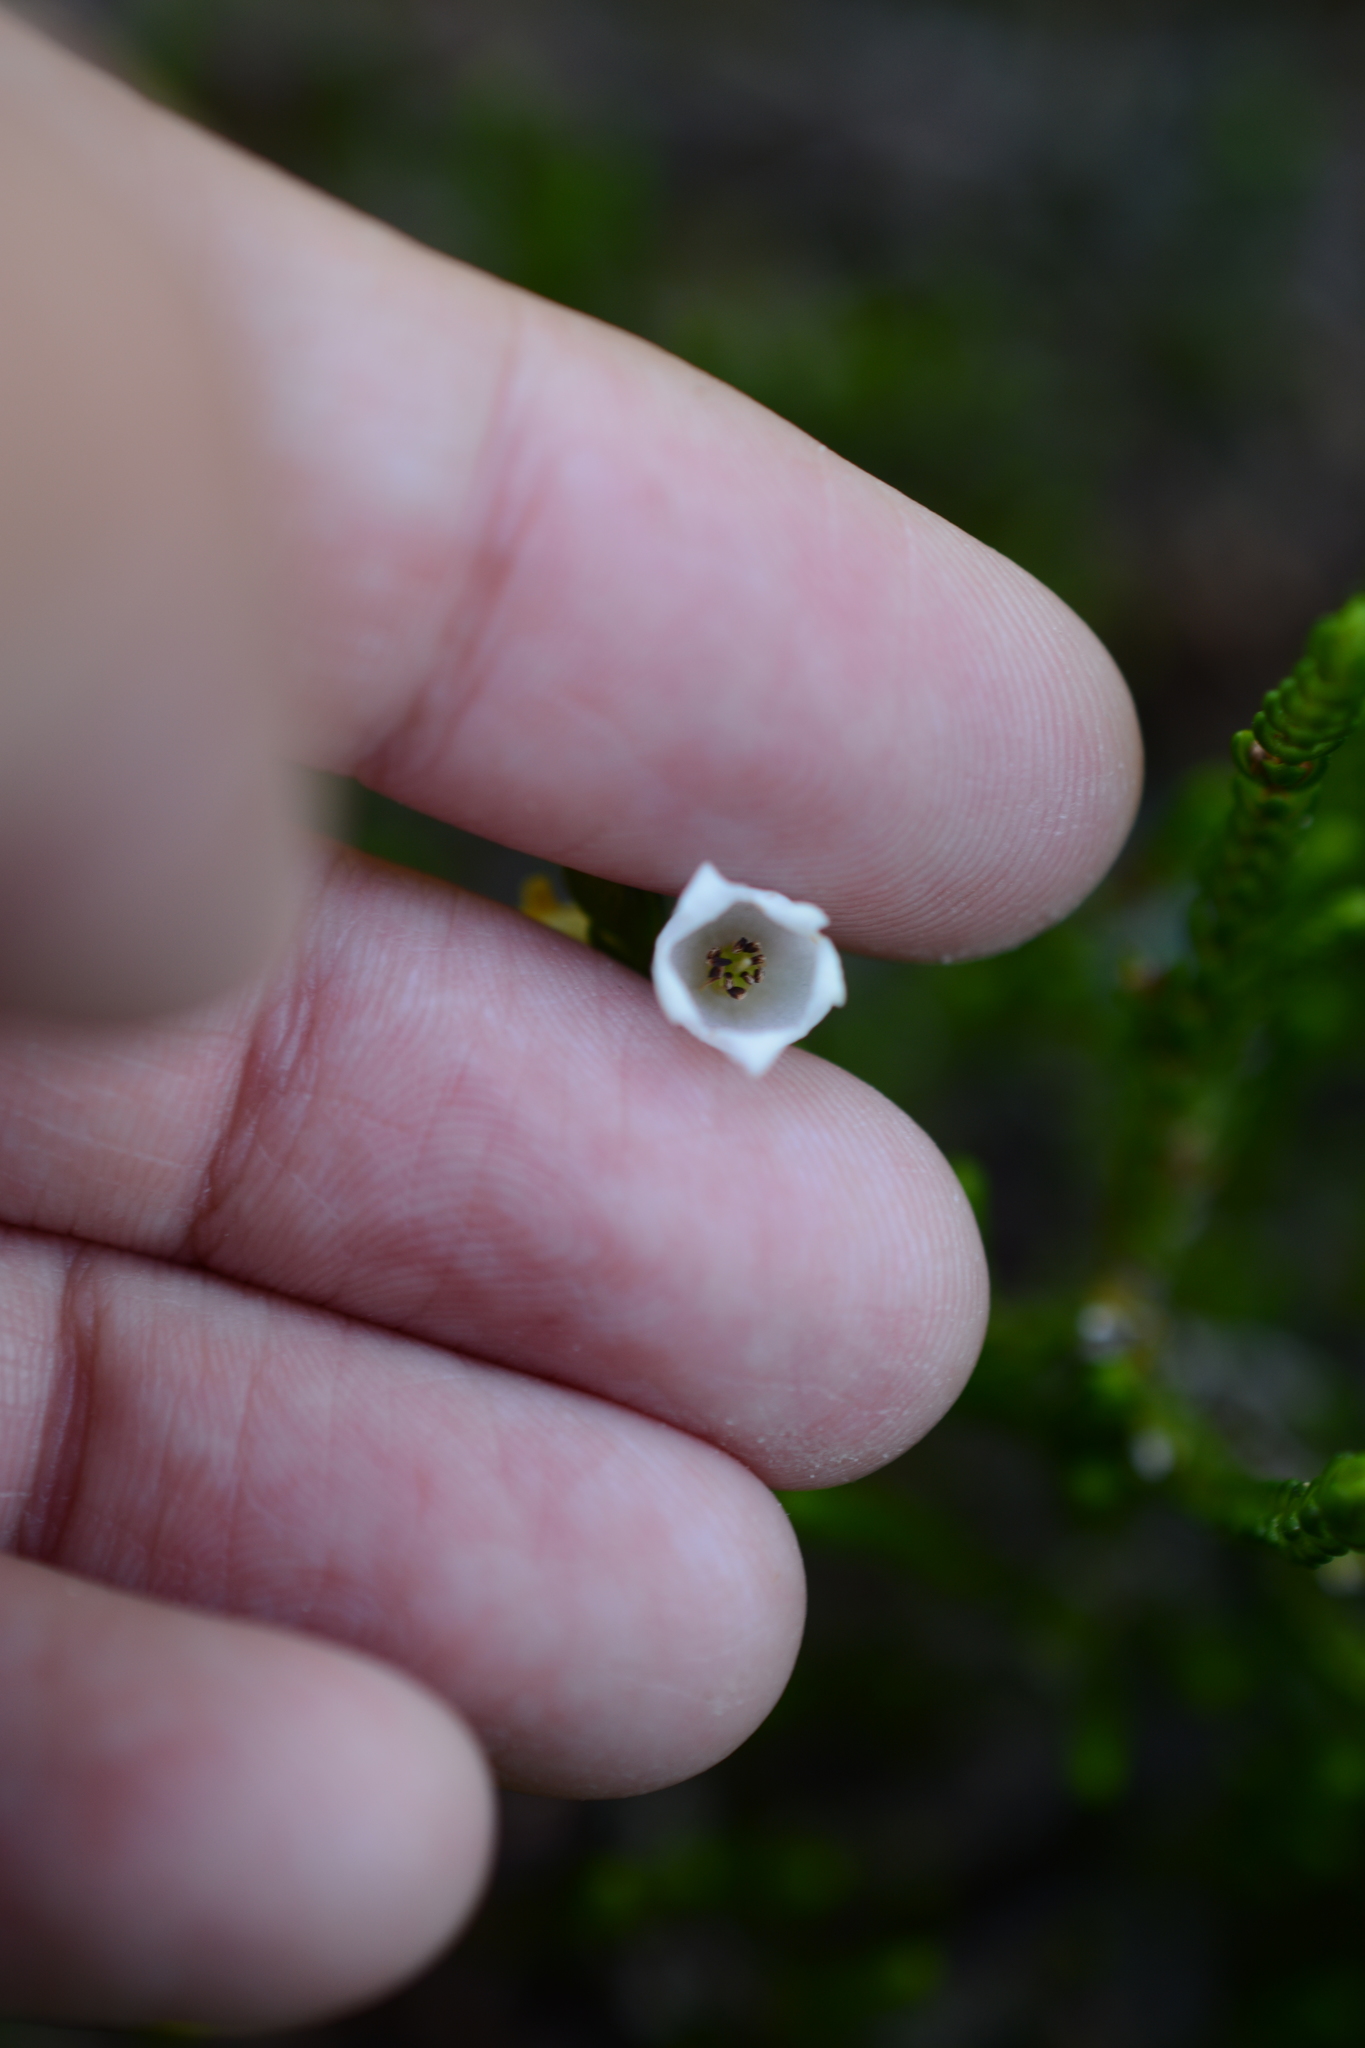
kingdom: Plantae
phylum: Tracheophyta
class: Magnoliopsida
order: Ericales
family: Ericaceae
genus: Cassiope
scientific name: Cassiope mertensiana
